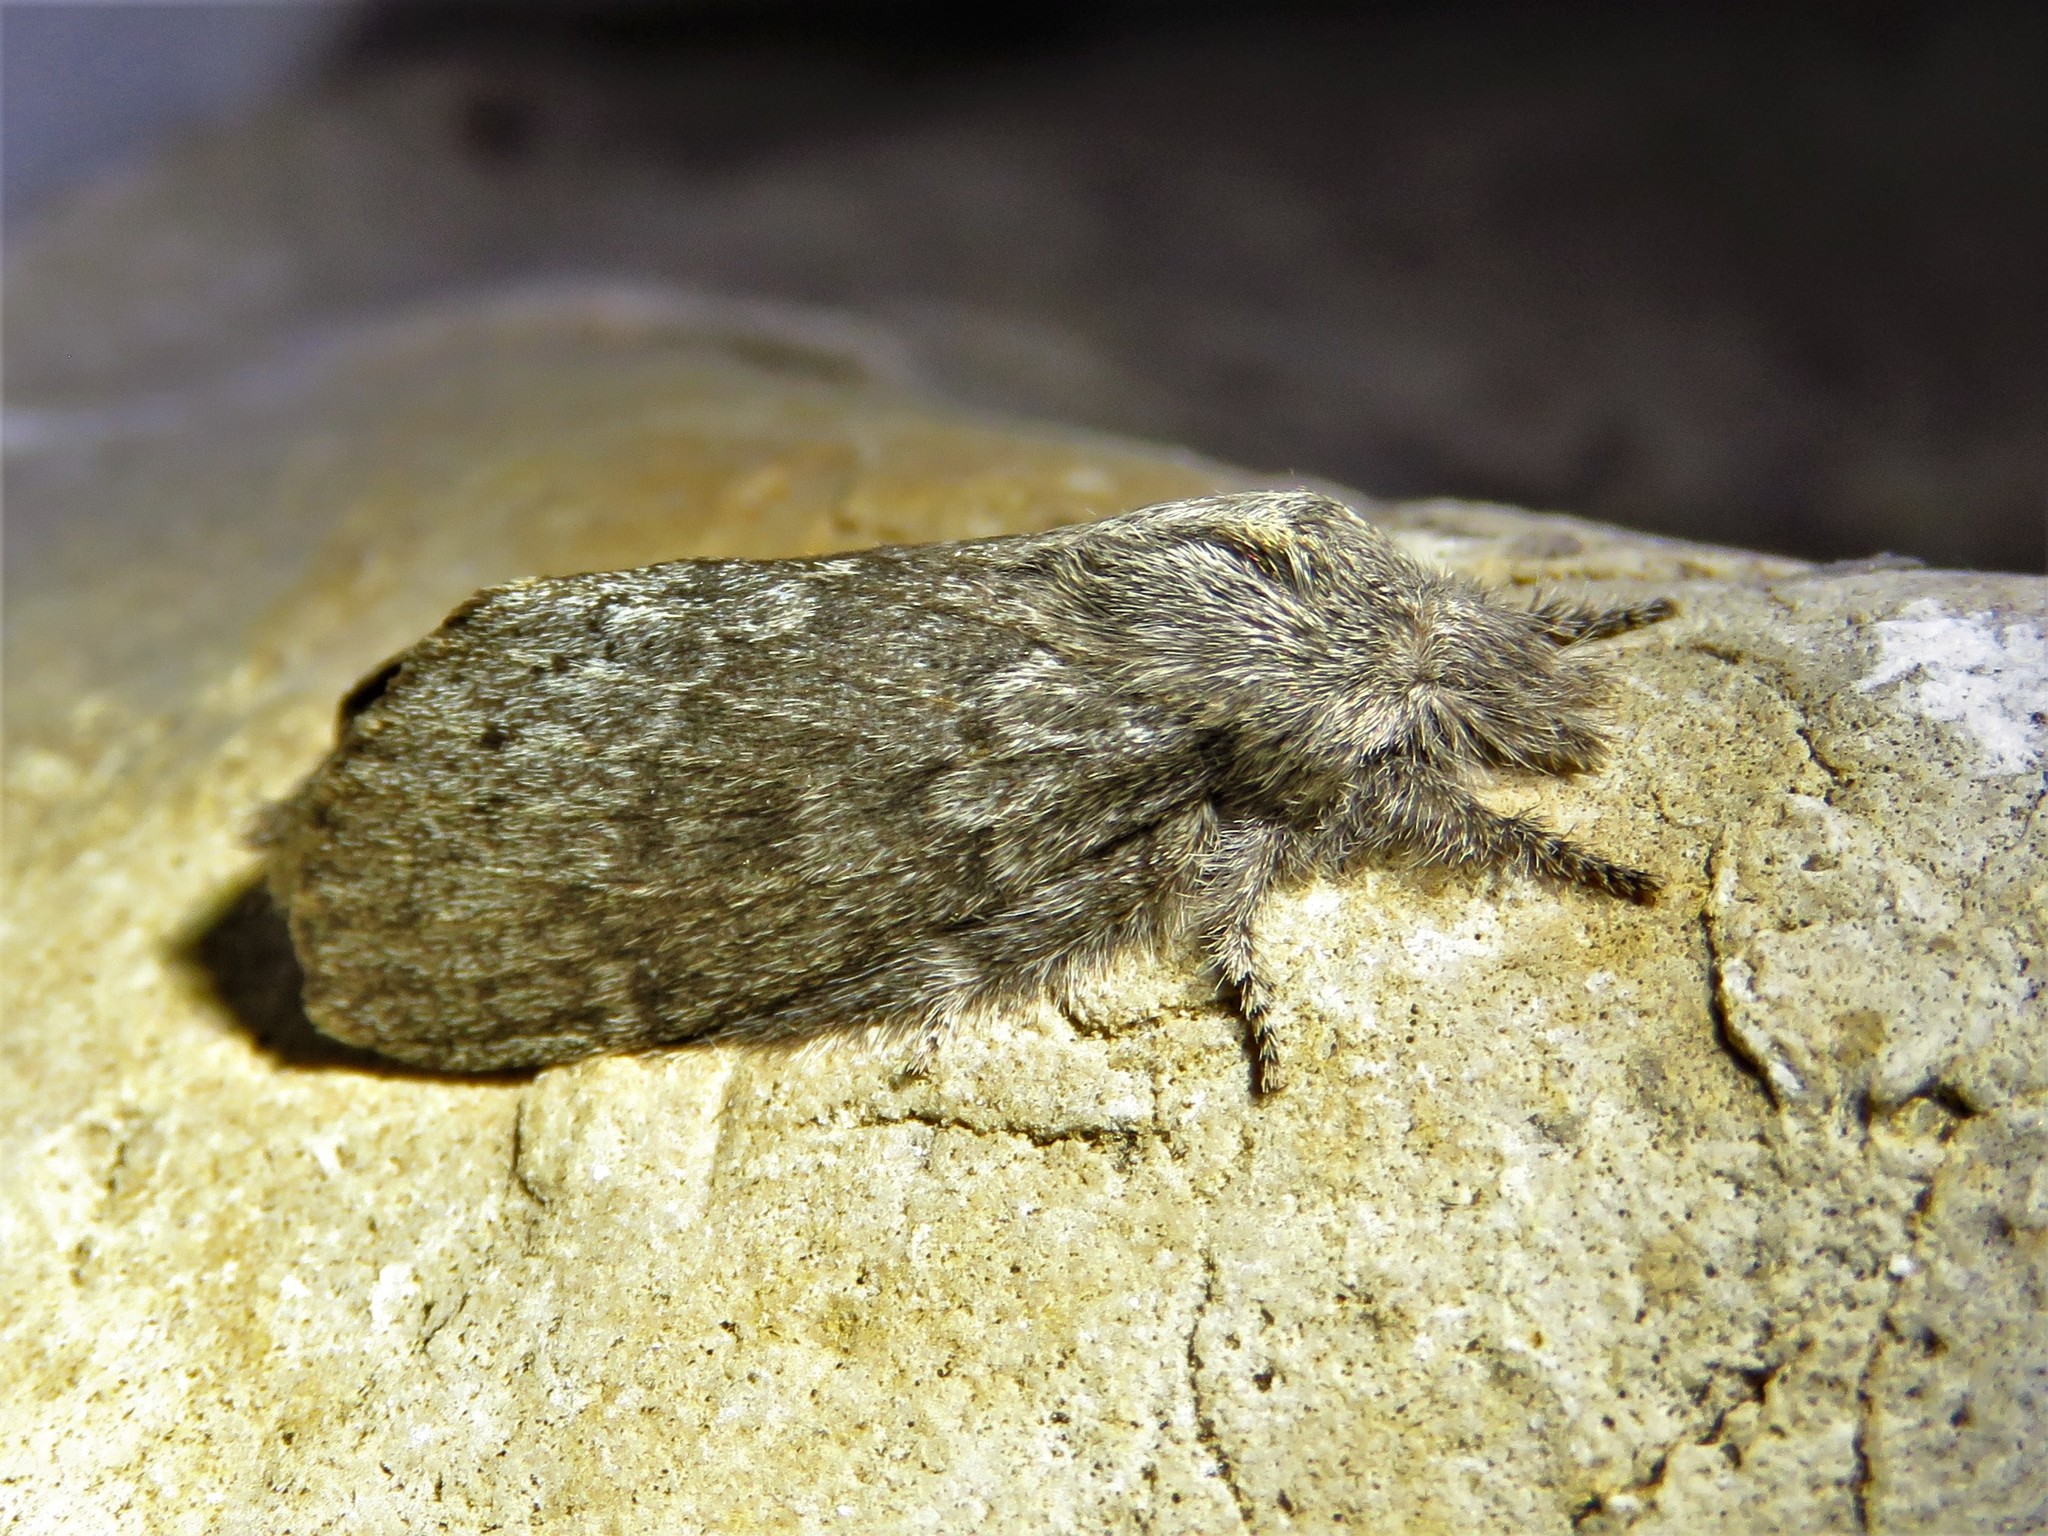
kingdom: Animalia
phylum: Arthropoda
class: Insecta
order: Lepidoptera
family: Lasiocampidae
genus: Heteropacha
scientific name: Heteropacha rileyana
